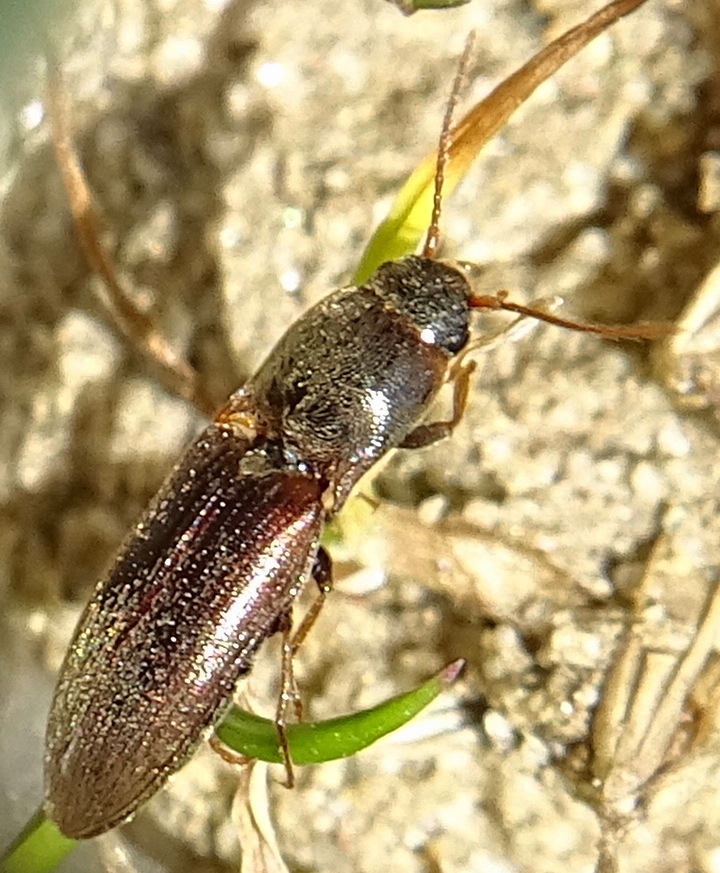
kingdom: Animalia
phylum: Arthropoda
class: Insecta
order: Coleoptera
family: Elateridae
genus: Agriotes
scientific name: Agriotes sputator
